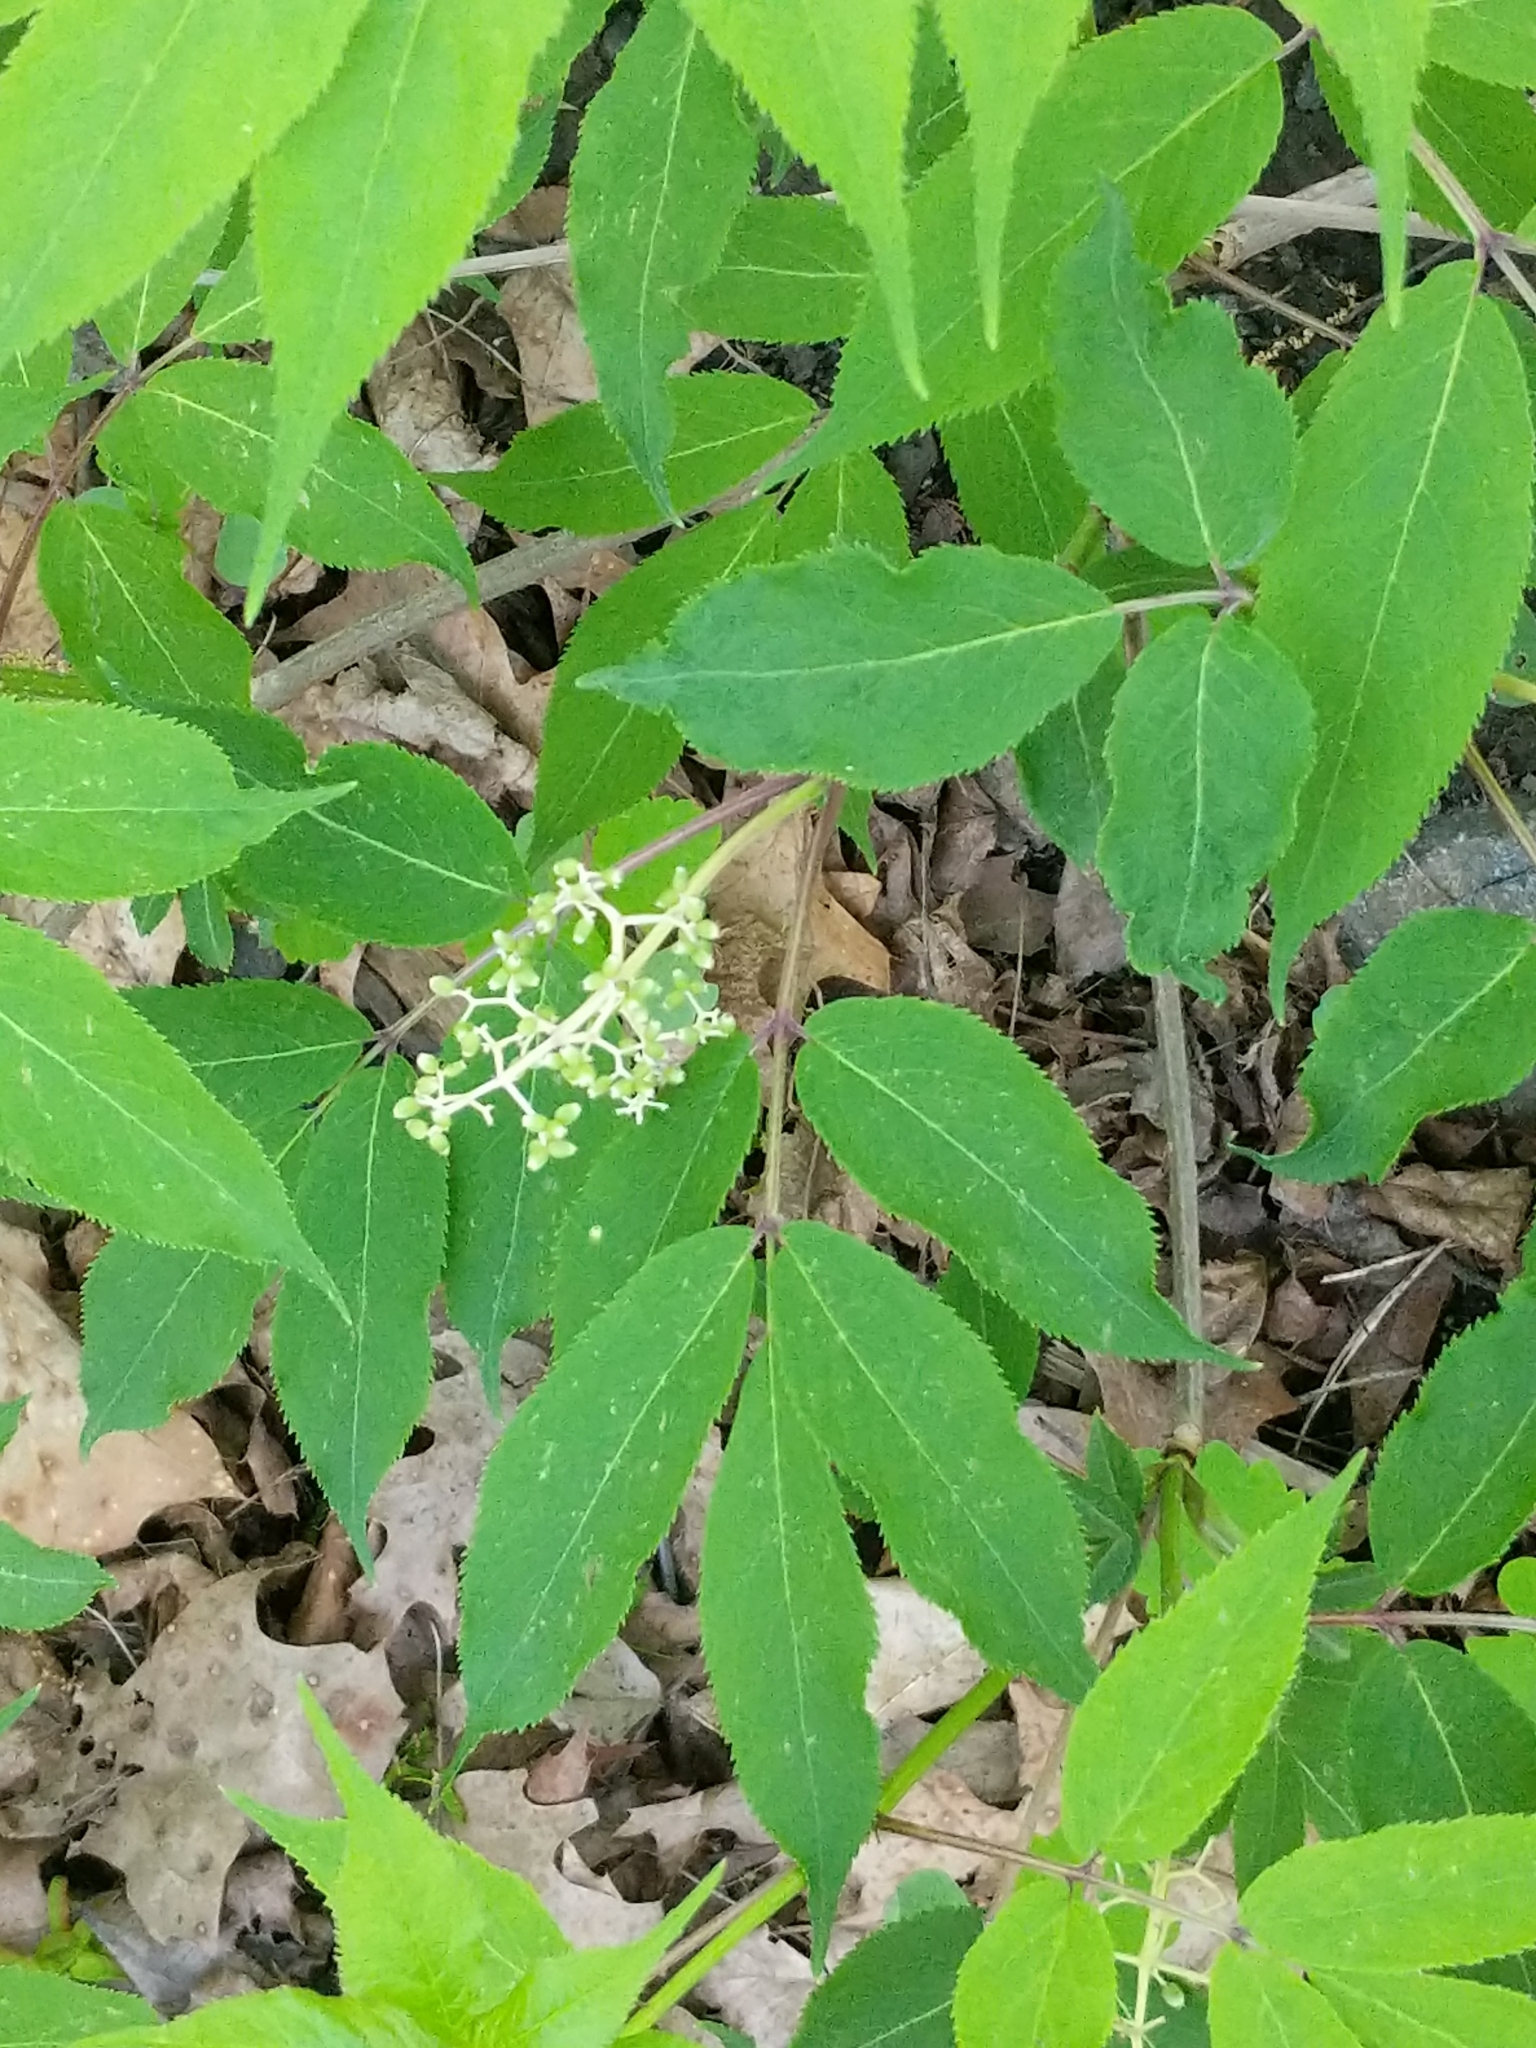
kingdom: Plantae
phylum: Tracheophyta
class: Magnoliopsida
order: Dipsacales
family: Viburnaceae
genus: Sambucus
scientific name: Sambucus racemosa
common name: Red-berried elder
